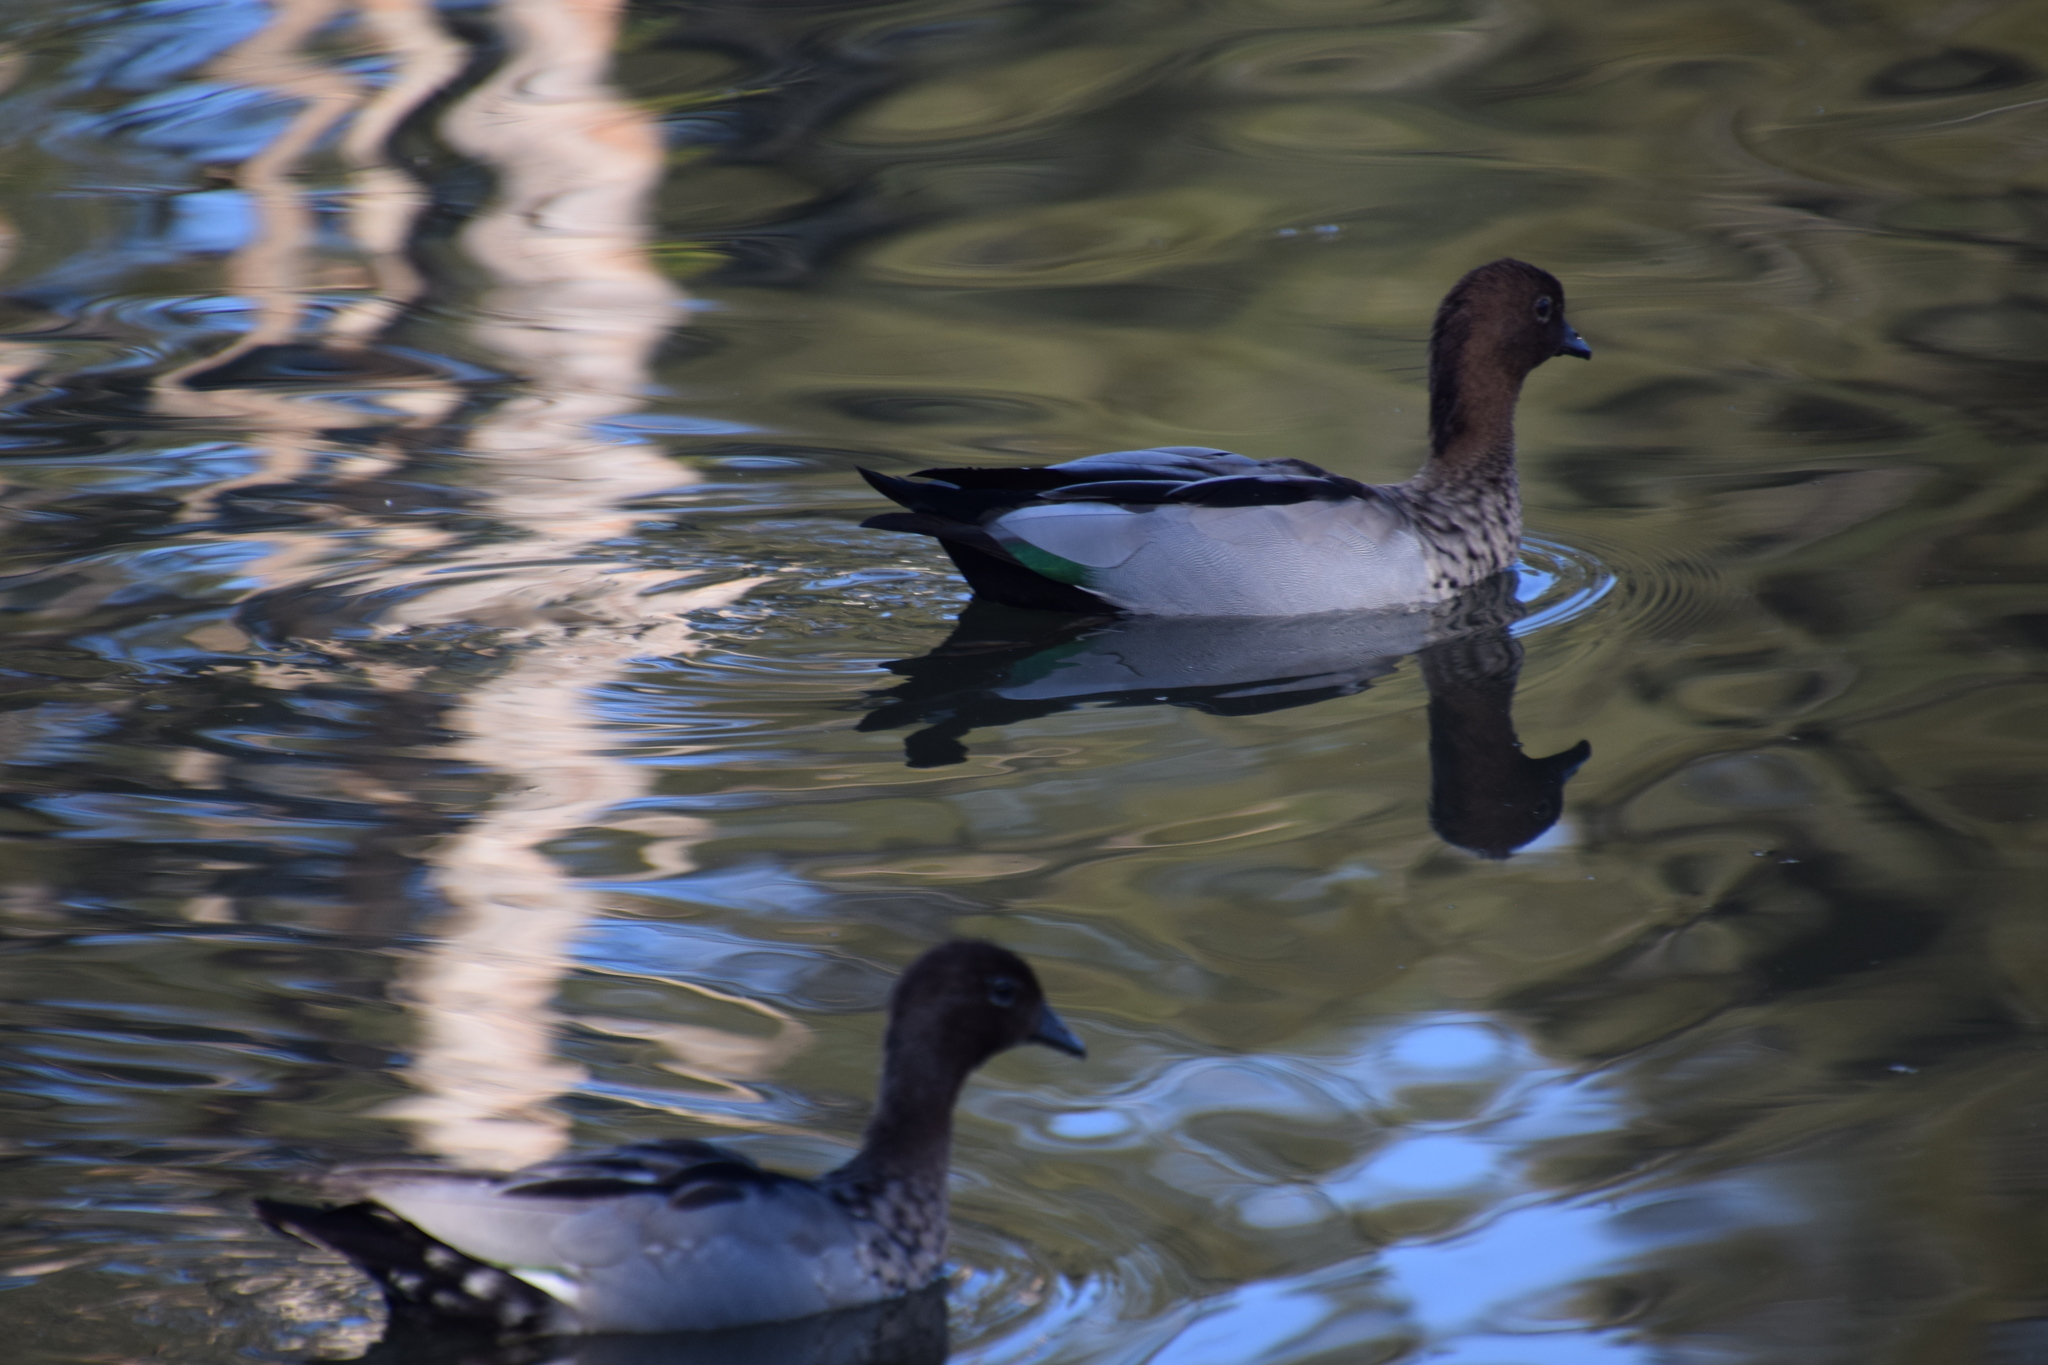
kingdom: Animalia
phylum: Chordata
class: Aves
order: Anseriformes
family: Anatidae
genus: Chenonetta
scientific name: Chenonetta jubata
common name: Maned duck
